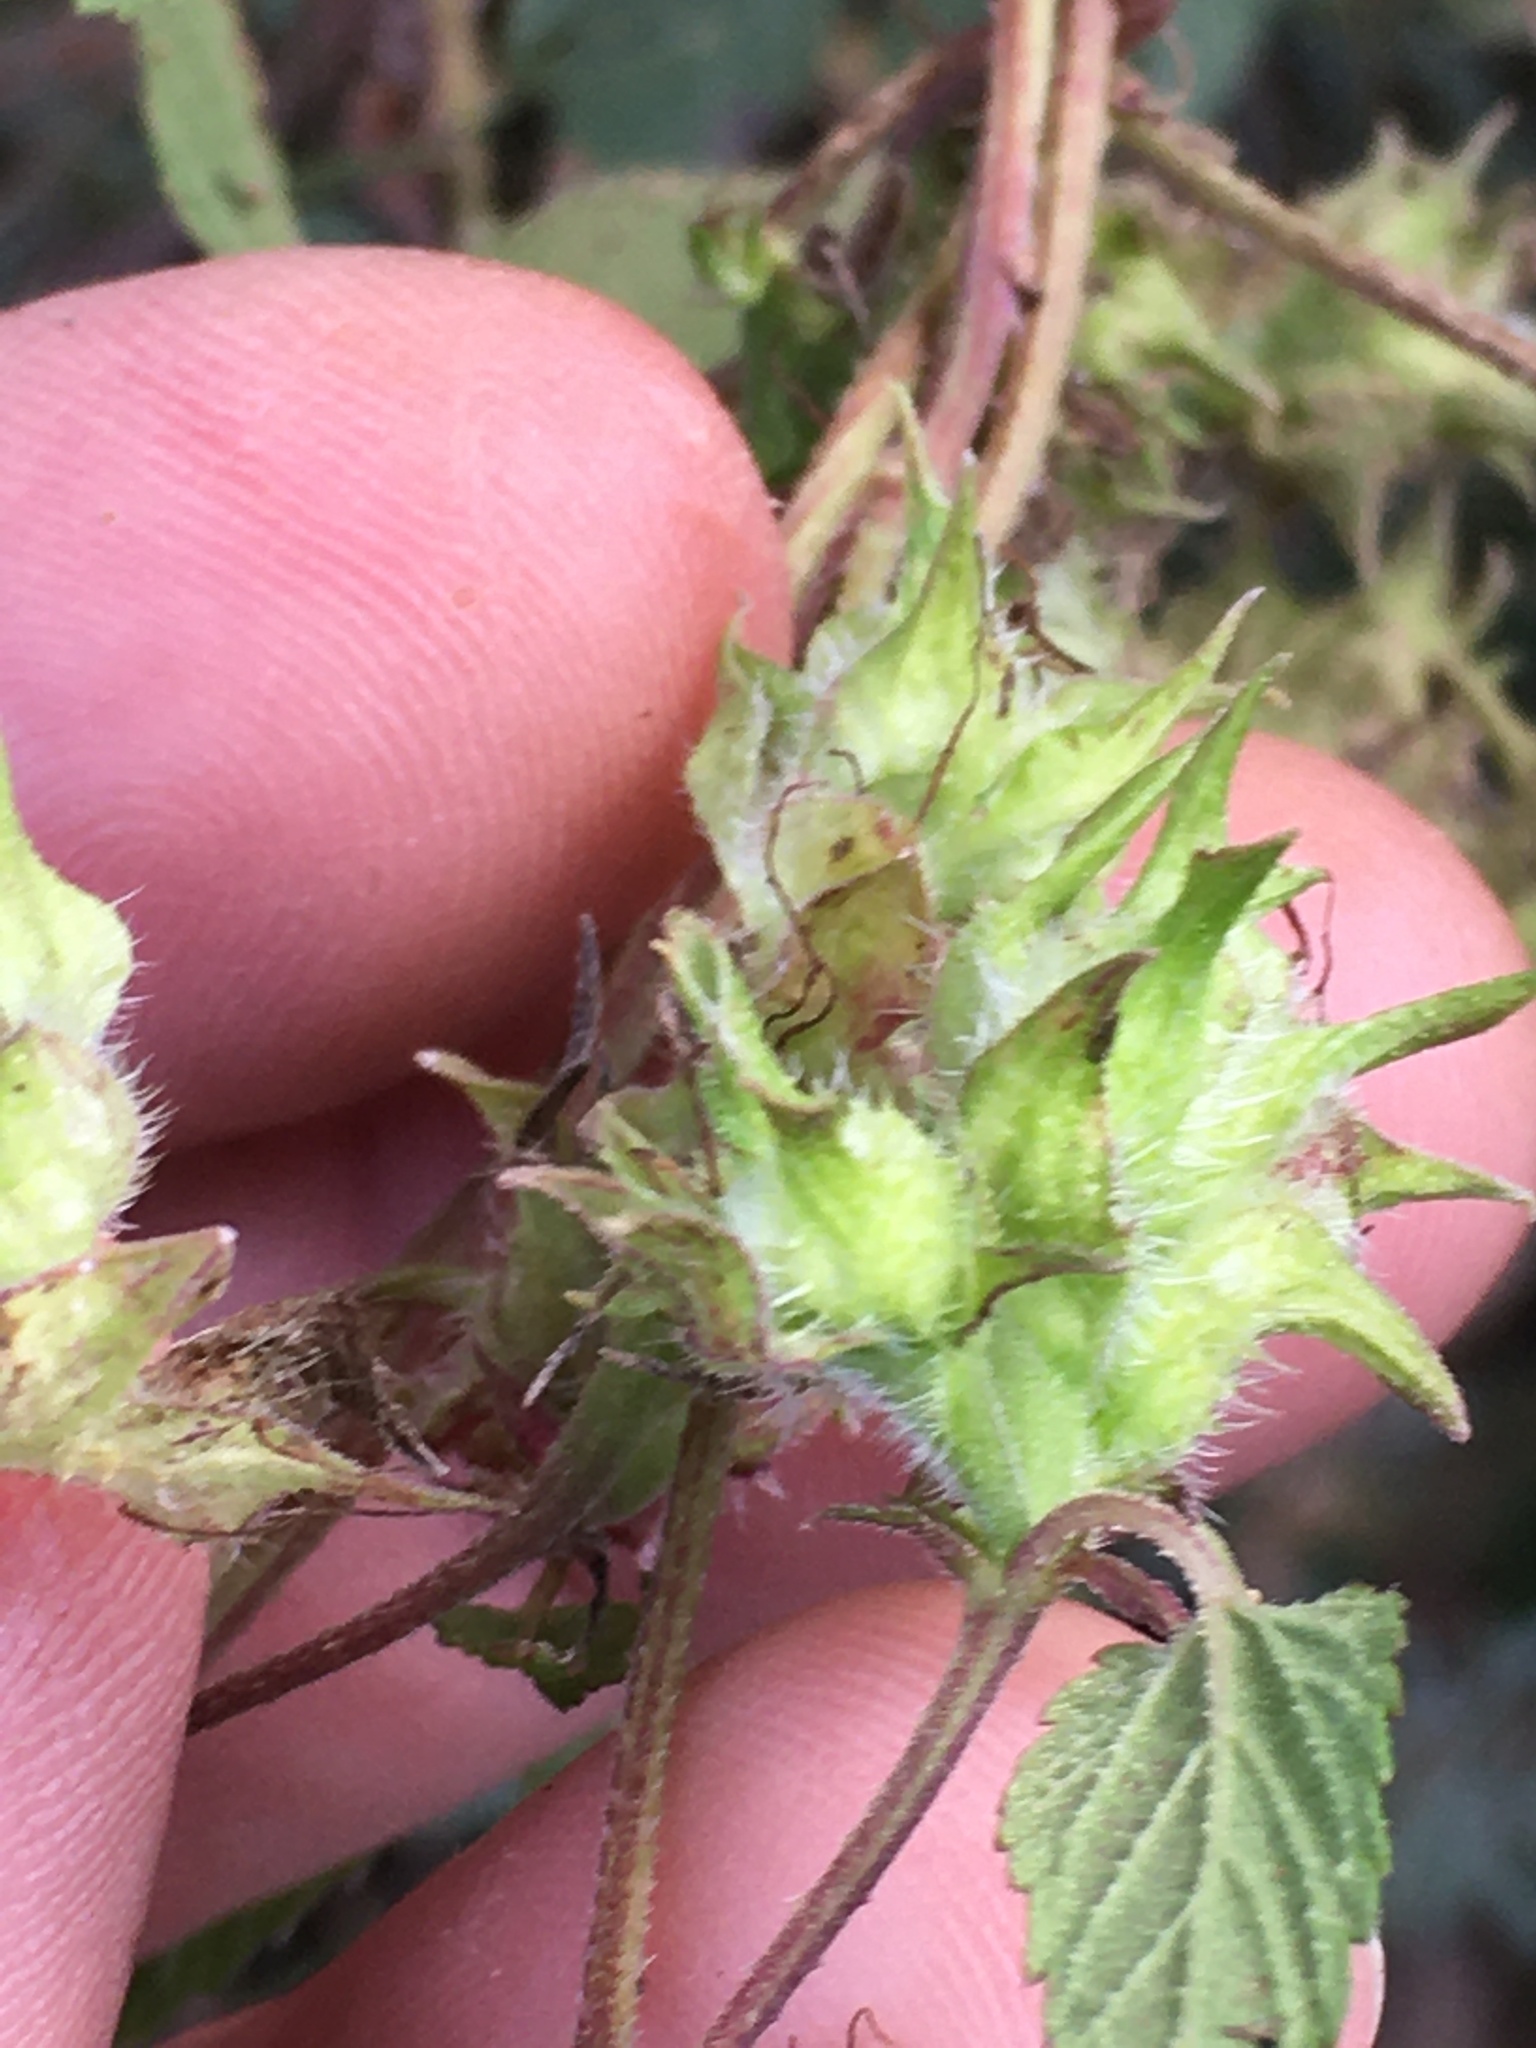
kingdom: Plantae
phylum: Tracheophyta
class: Magnoliopsida
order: Rosales
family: Cannabaceae
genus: Humulus
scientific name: Humulus scandens
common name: Japanese hop
